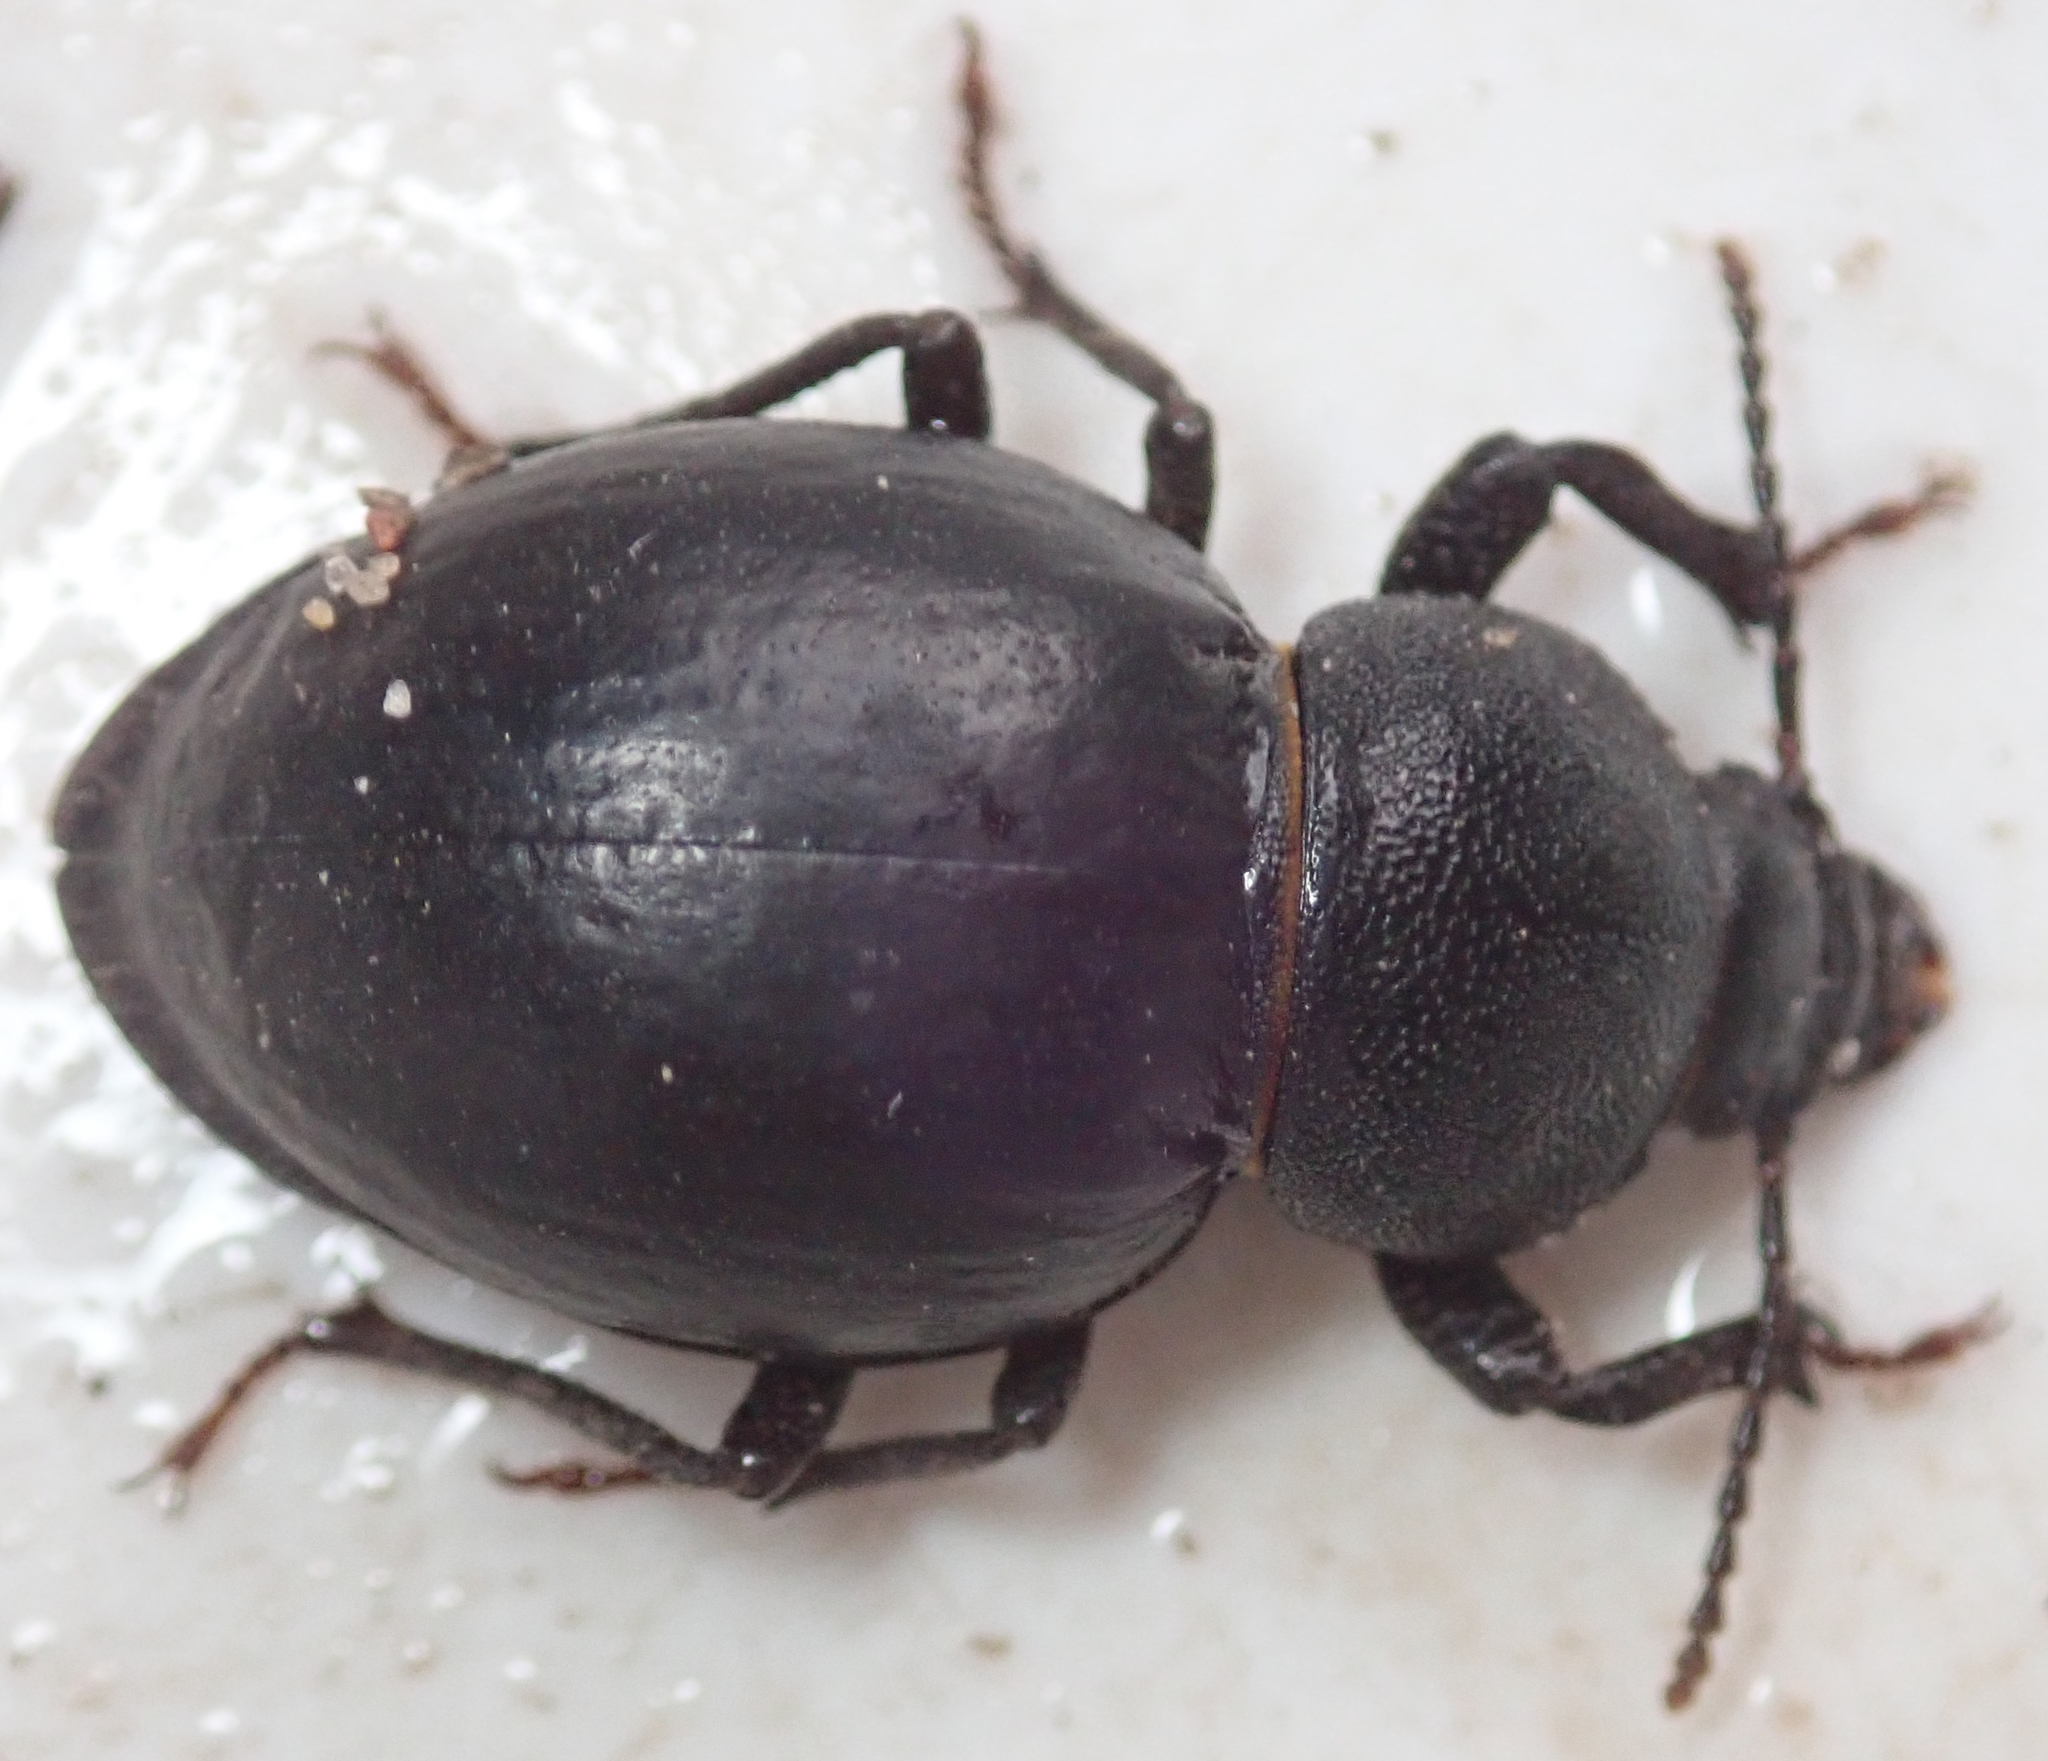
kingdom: Animalia
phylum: Arthropoda
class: Insecta
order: Coleoptera
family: Tenebrionidae
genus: Ocnodes
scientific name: Ocnodes virago
